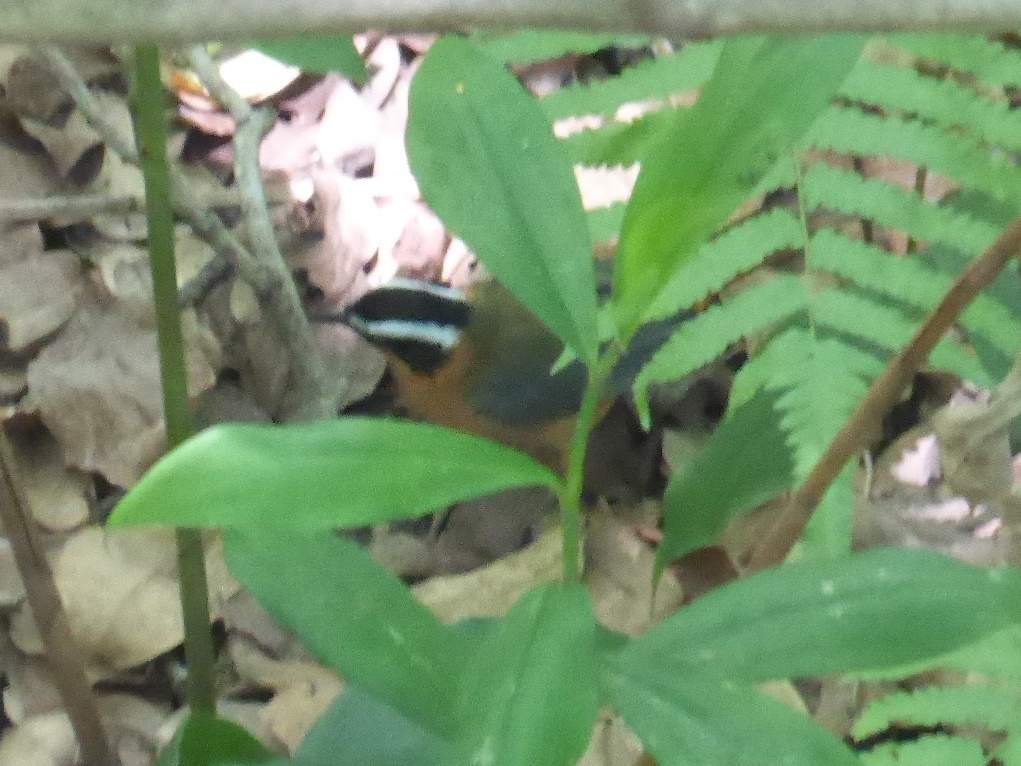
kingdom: Animalia
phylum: Chordata
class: Aves
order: Passeriformes
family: Muscicapidae
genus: Cossypha
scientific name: Cossypha heuglini
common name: White-browed robin-chat
